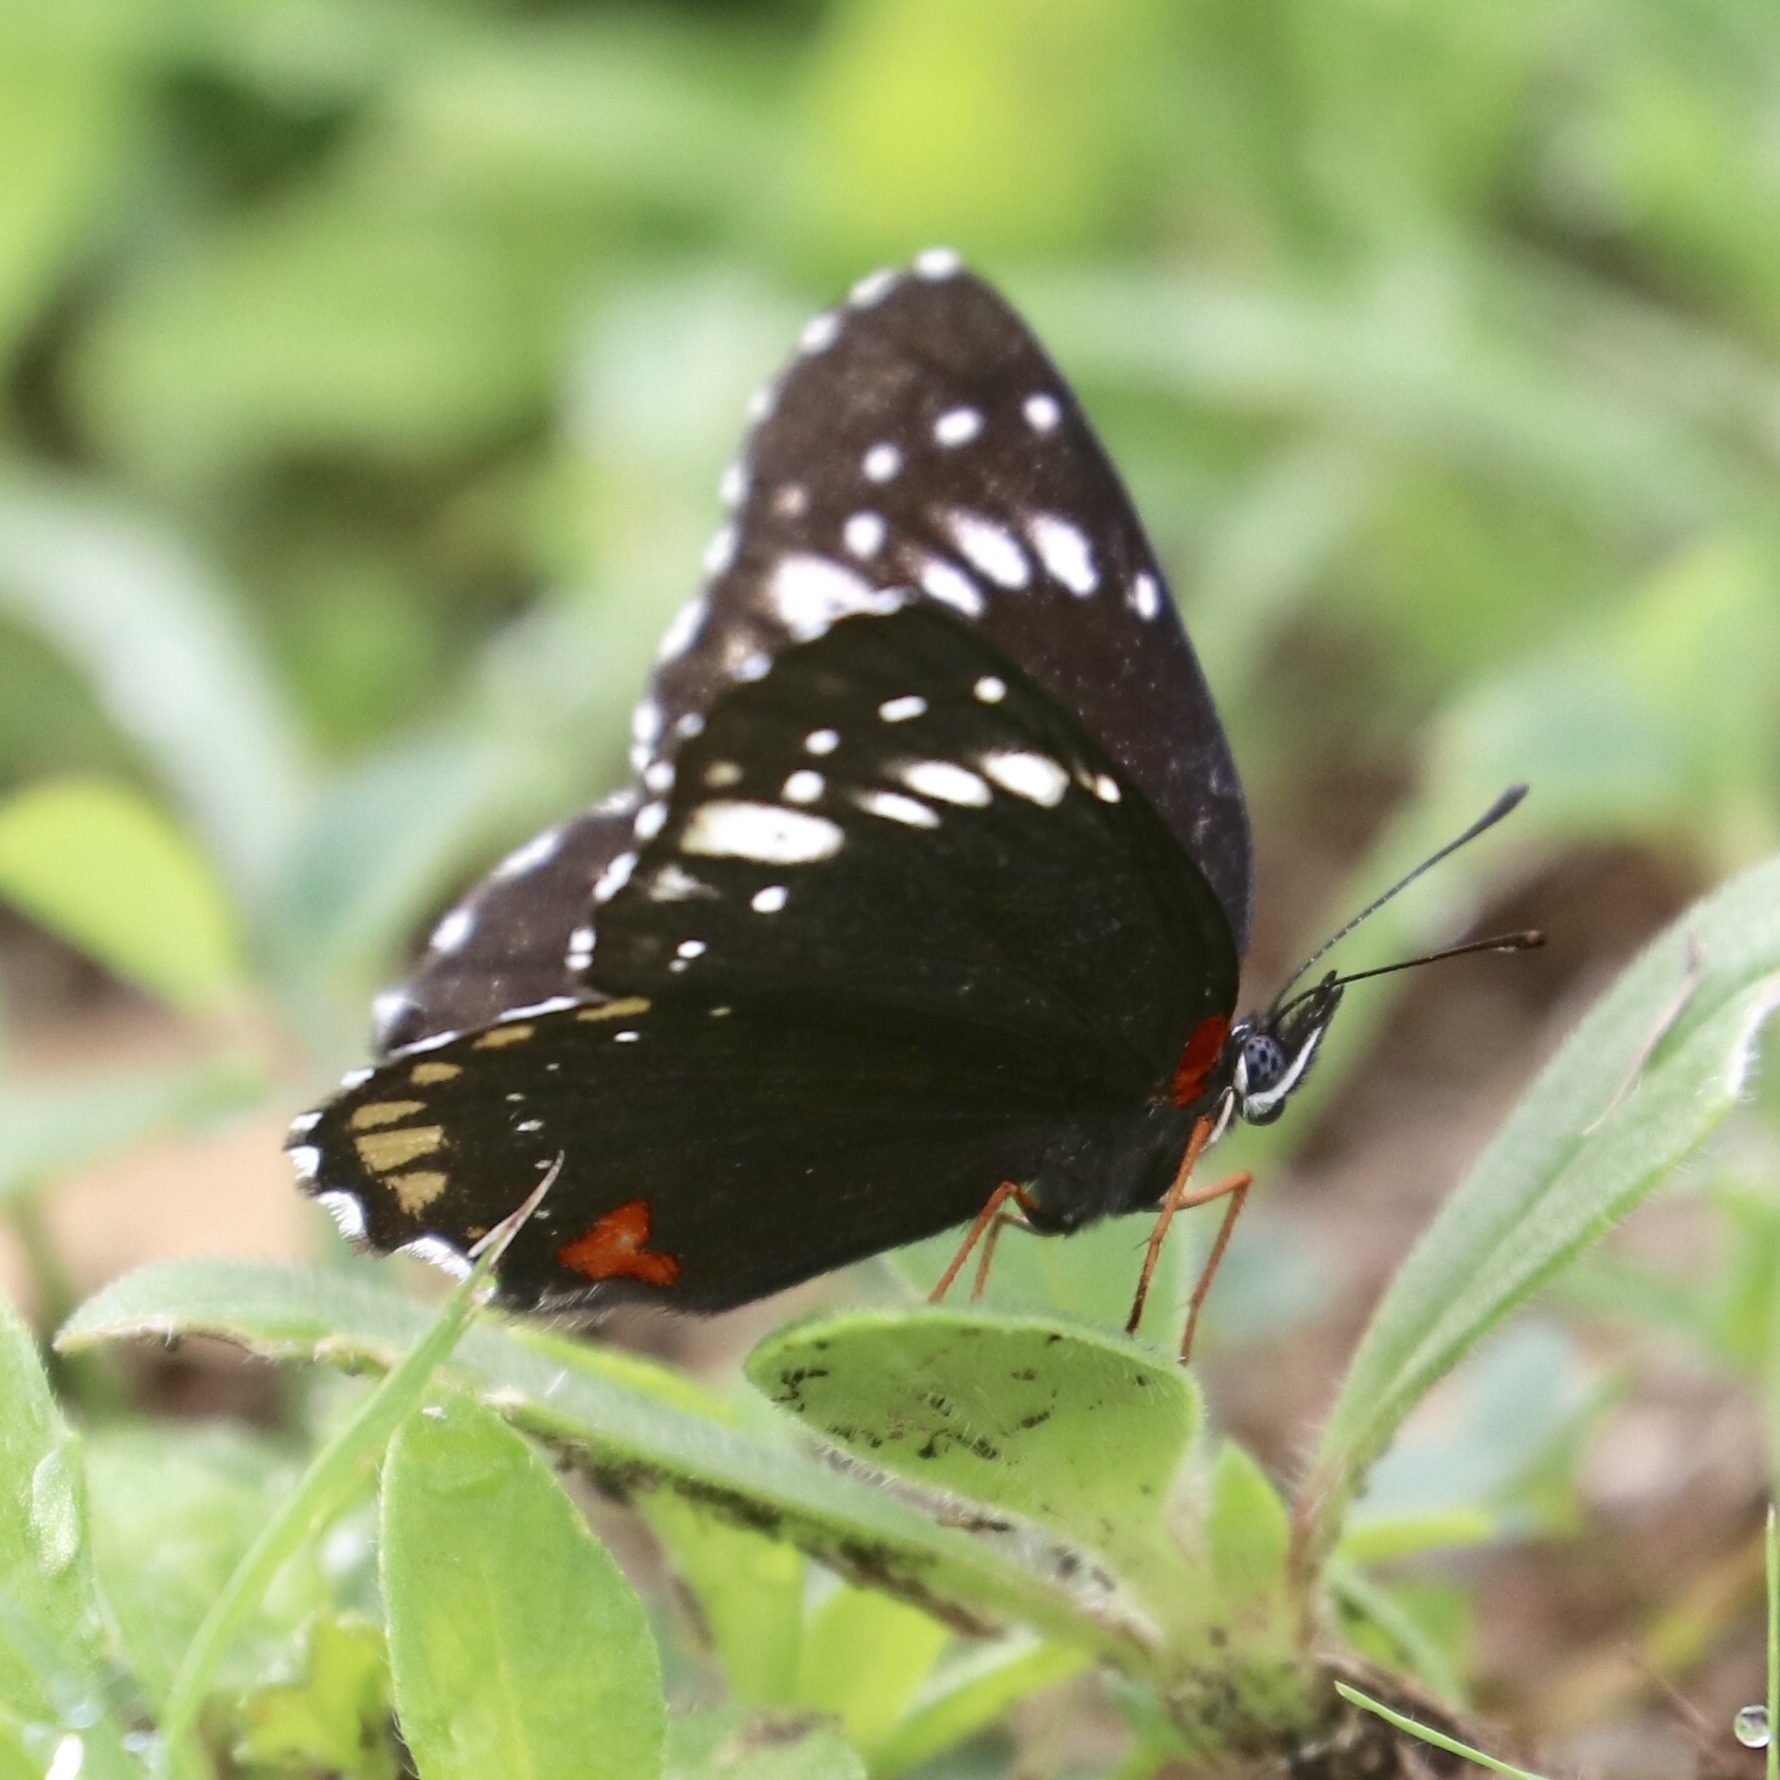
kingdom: Animalia
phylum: Arthropoda
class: Insecta
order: Lepidoptera
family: Nymphalidae
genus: Chlosyne
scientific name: Chlosyne lacinia
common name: Bordered patch
